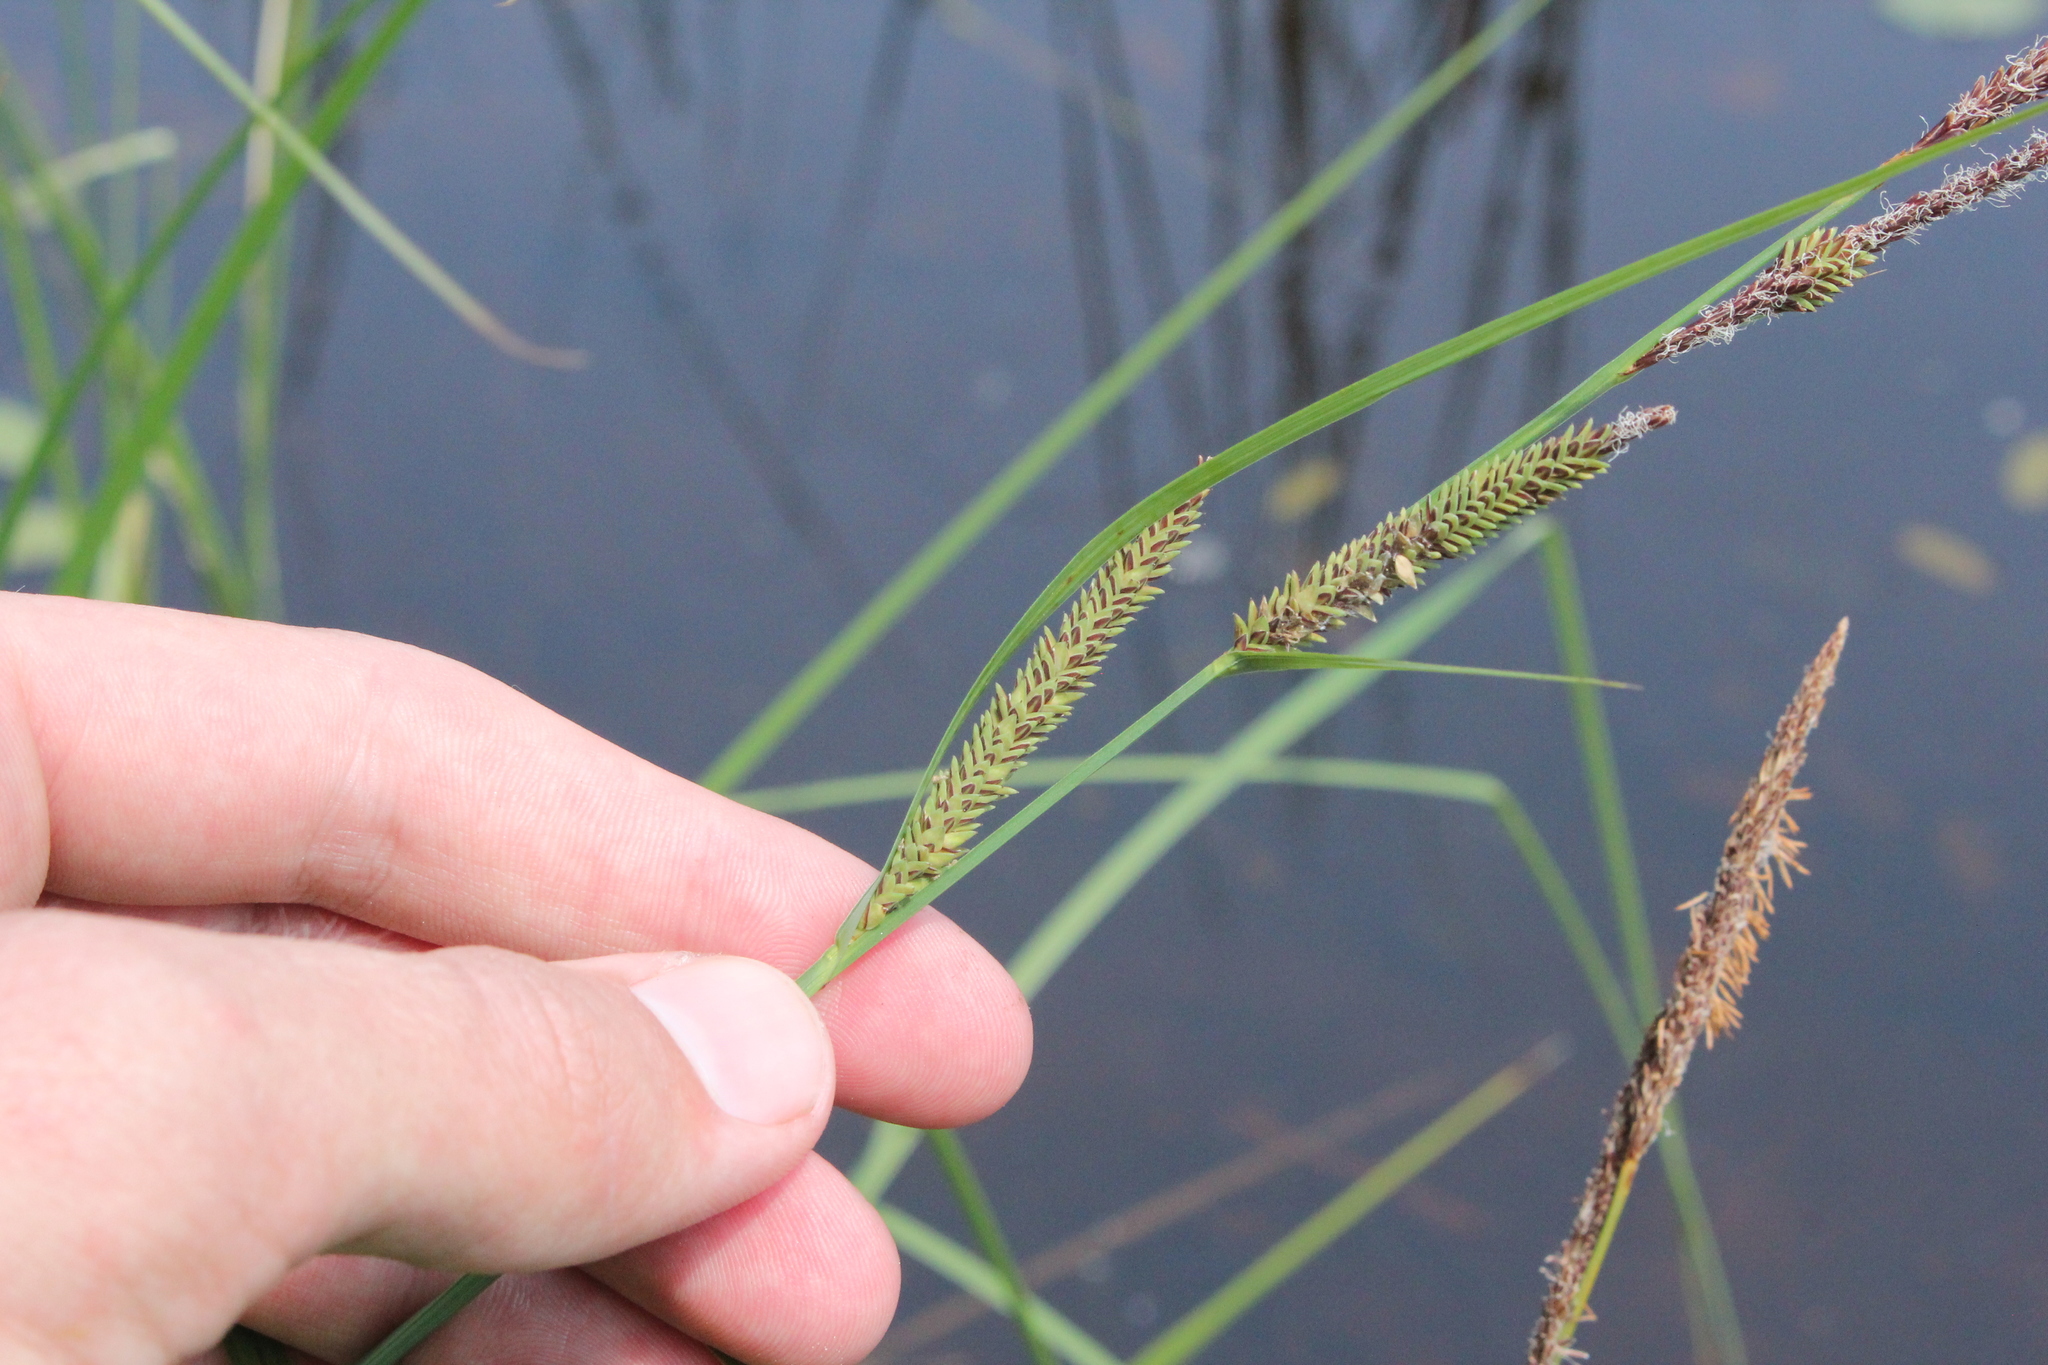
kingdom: Plantae
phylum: Tracheophyta
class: Liliopsida
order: Poales
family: Cyperaceae
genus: Carex
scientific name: Carex stricta
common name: Hummock sedge
